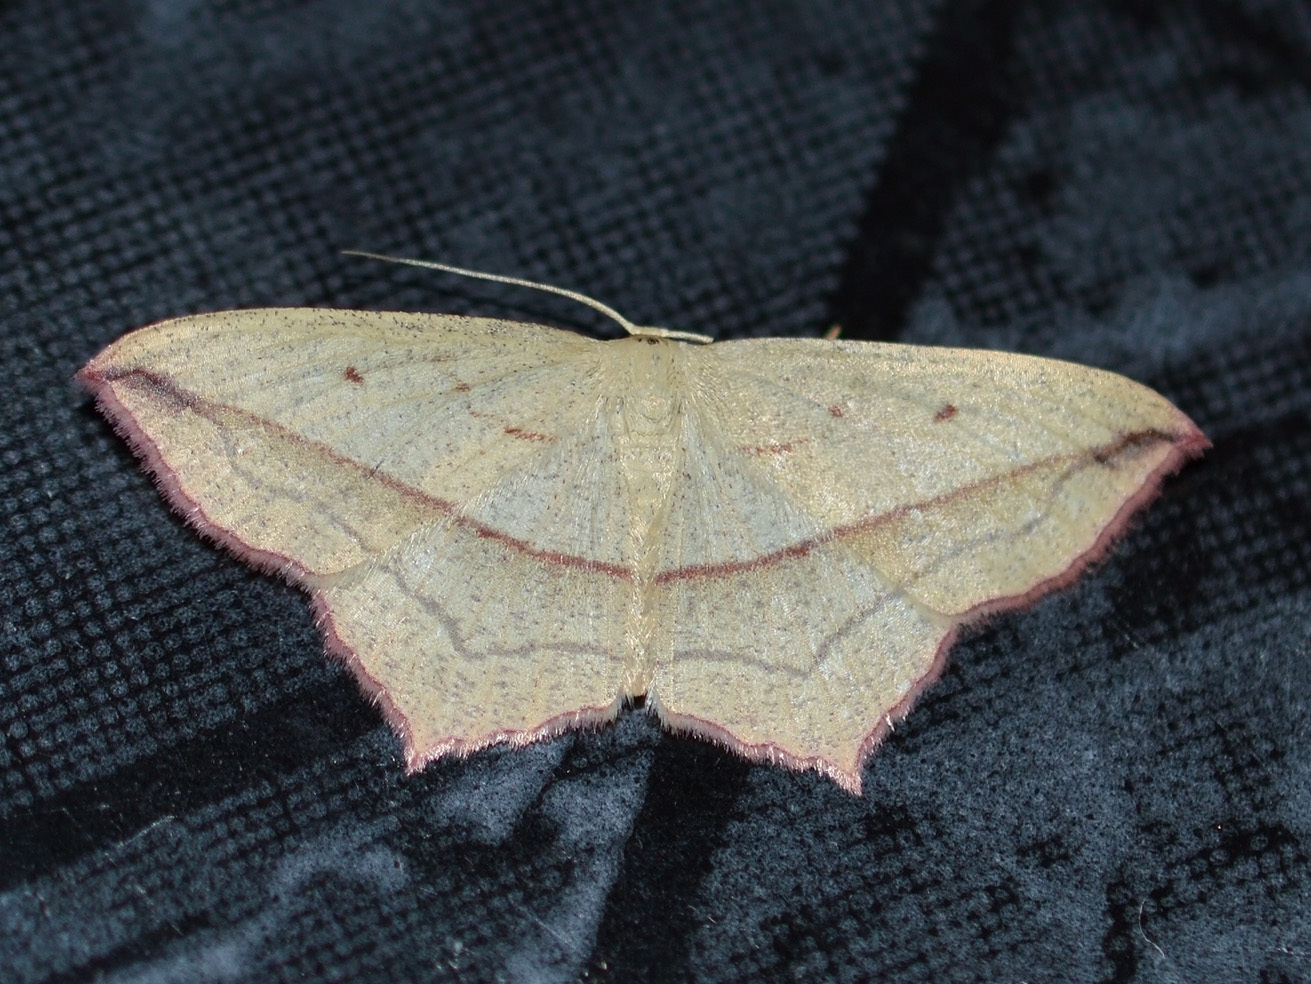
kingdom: Animalia
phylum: Arthropoda
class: Insecta
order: Lepidoptera
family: Geometridae
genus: Timandra
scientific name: Timandra comae
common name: Blood-vein
